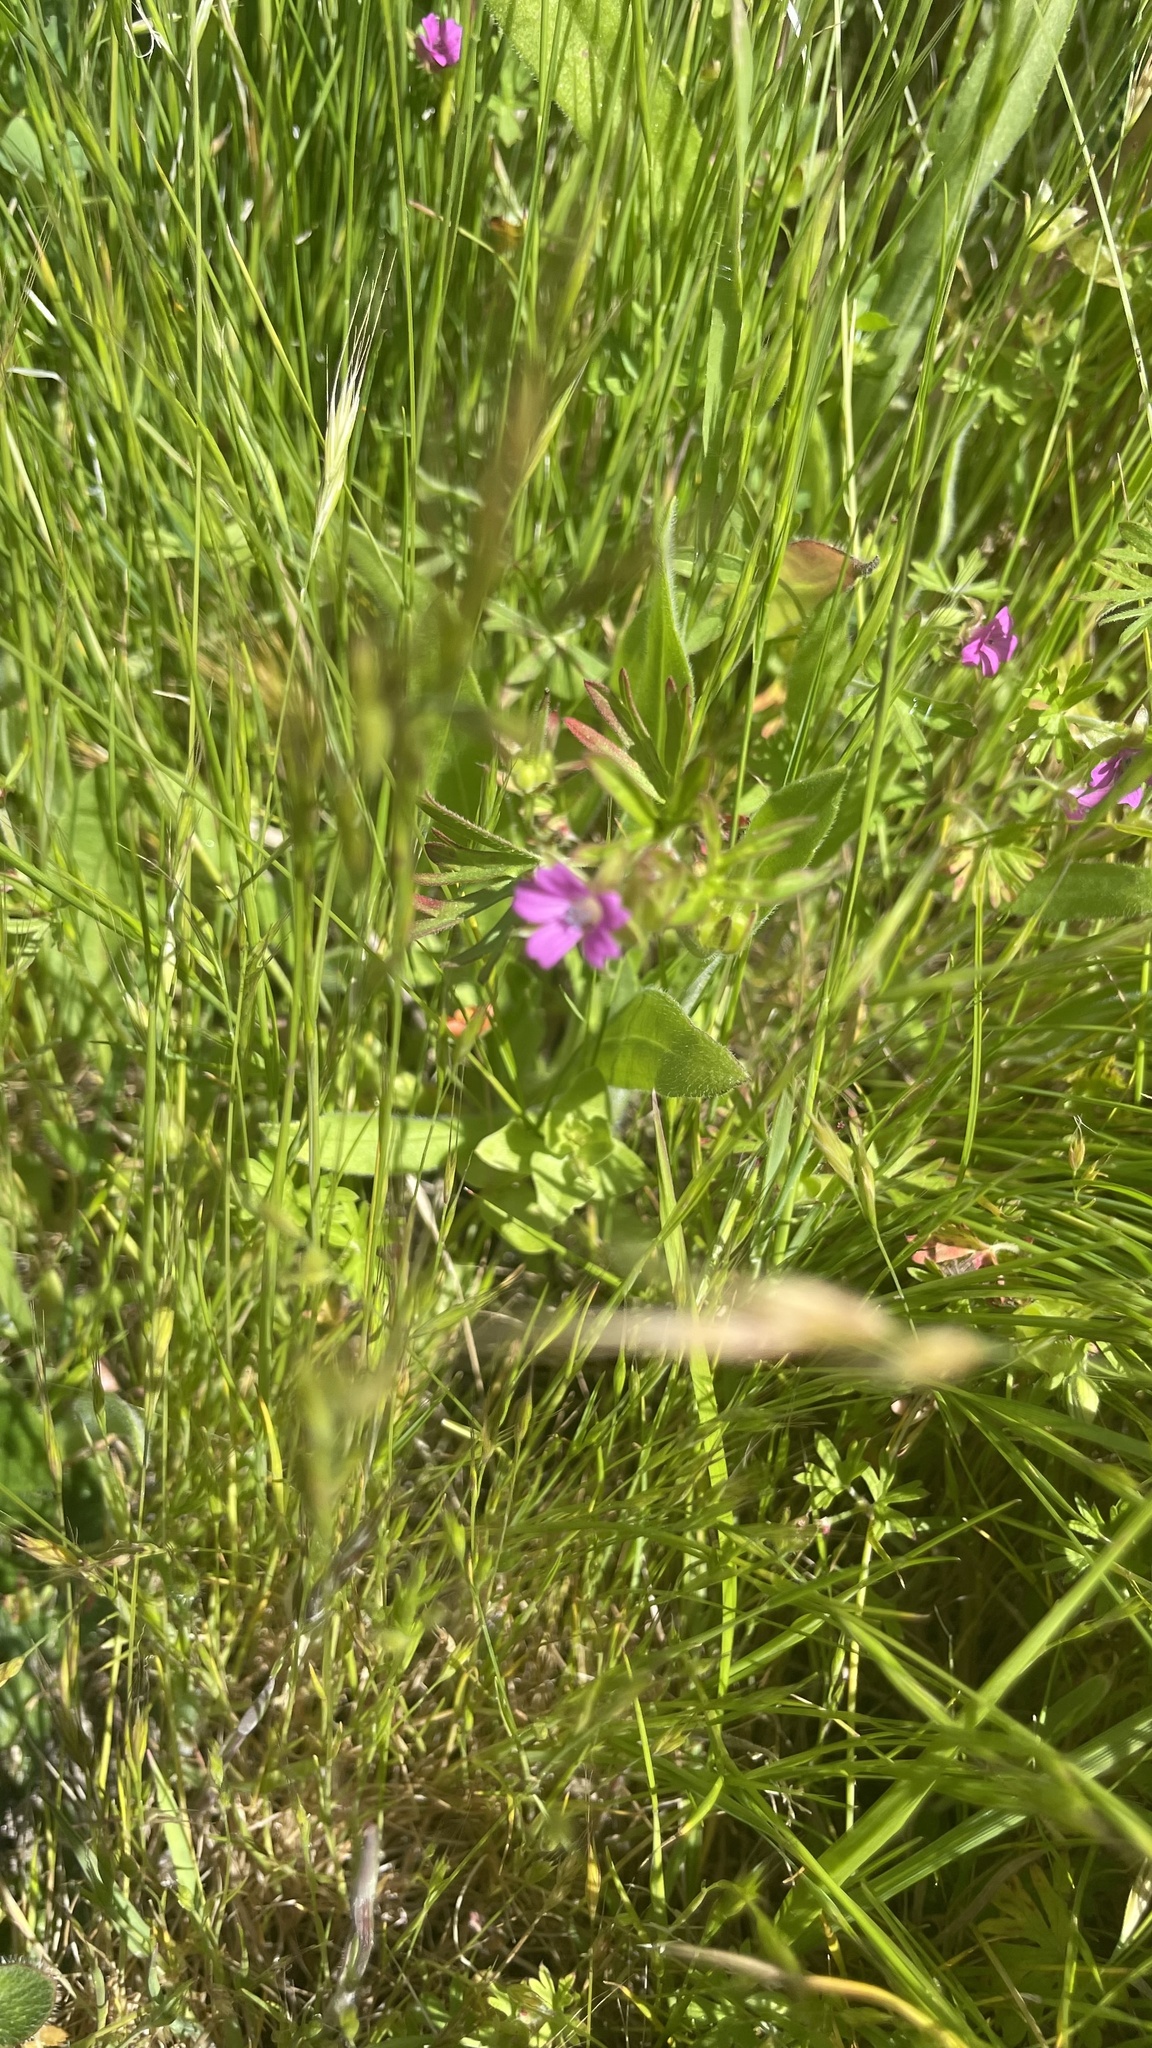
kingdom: Plantae
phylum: Tracheophyta
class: Magnoliopsida
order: Geraniales
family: Geraniaceae
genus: Geranium
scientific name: Geranium dissectum
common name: Cut-leaved crane's-bill
